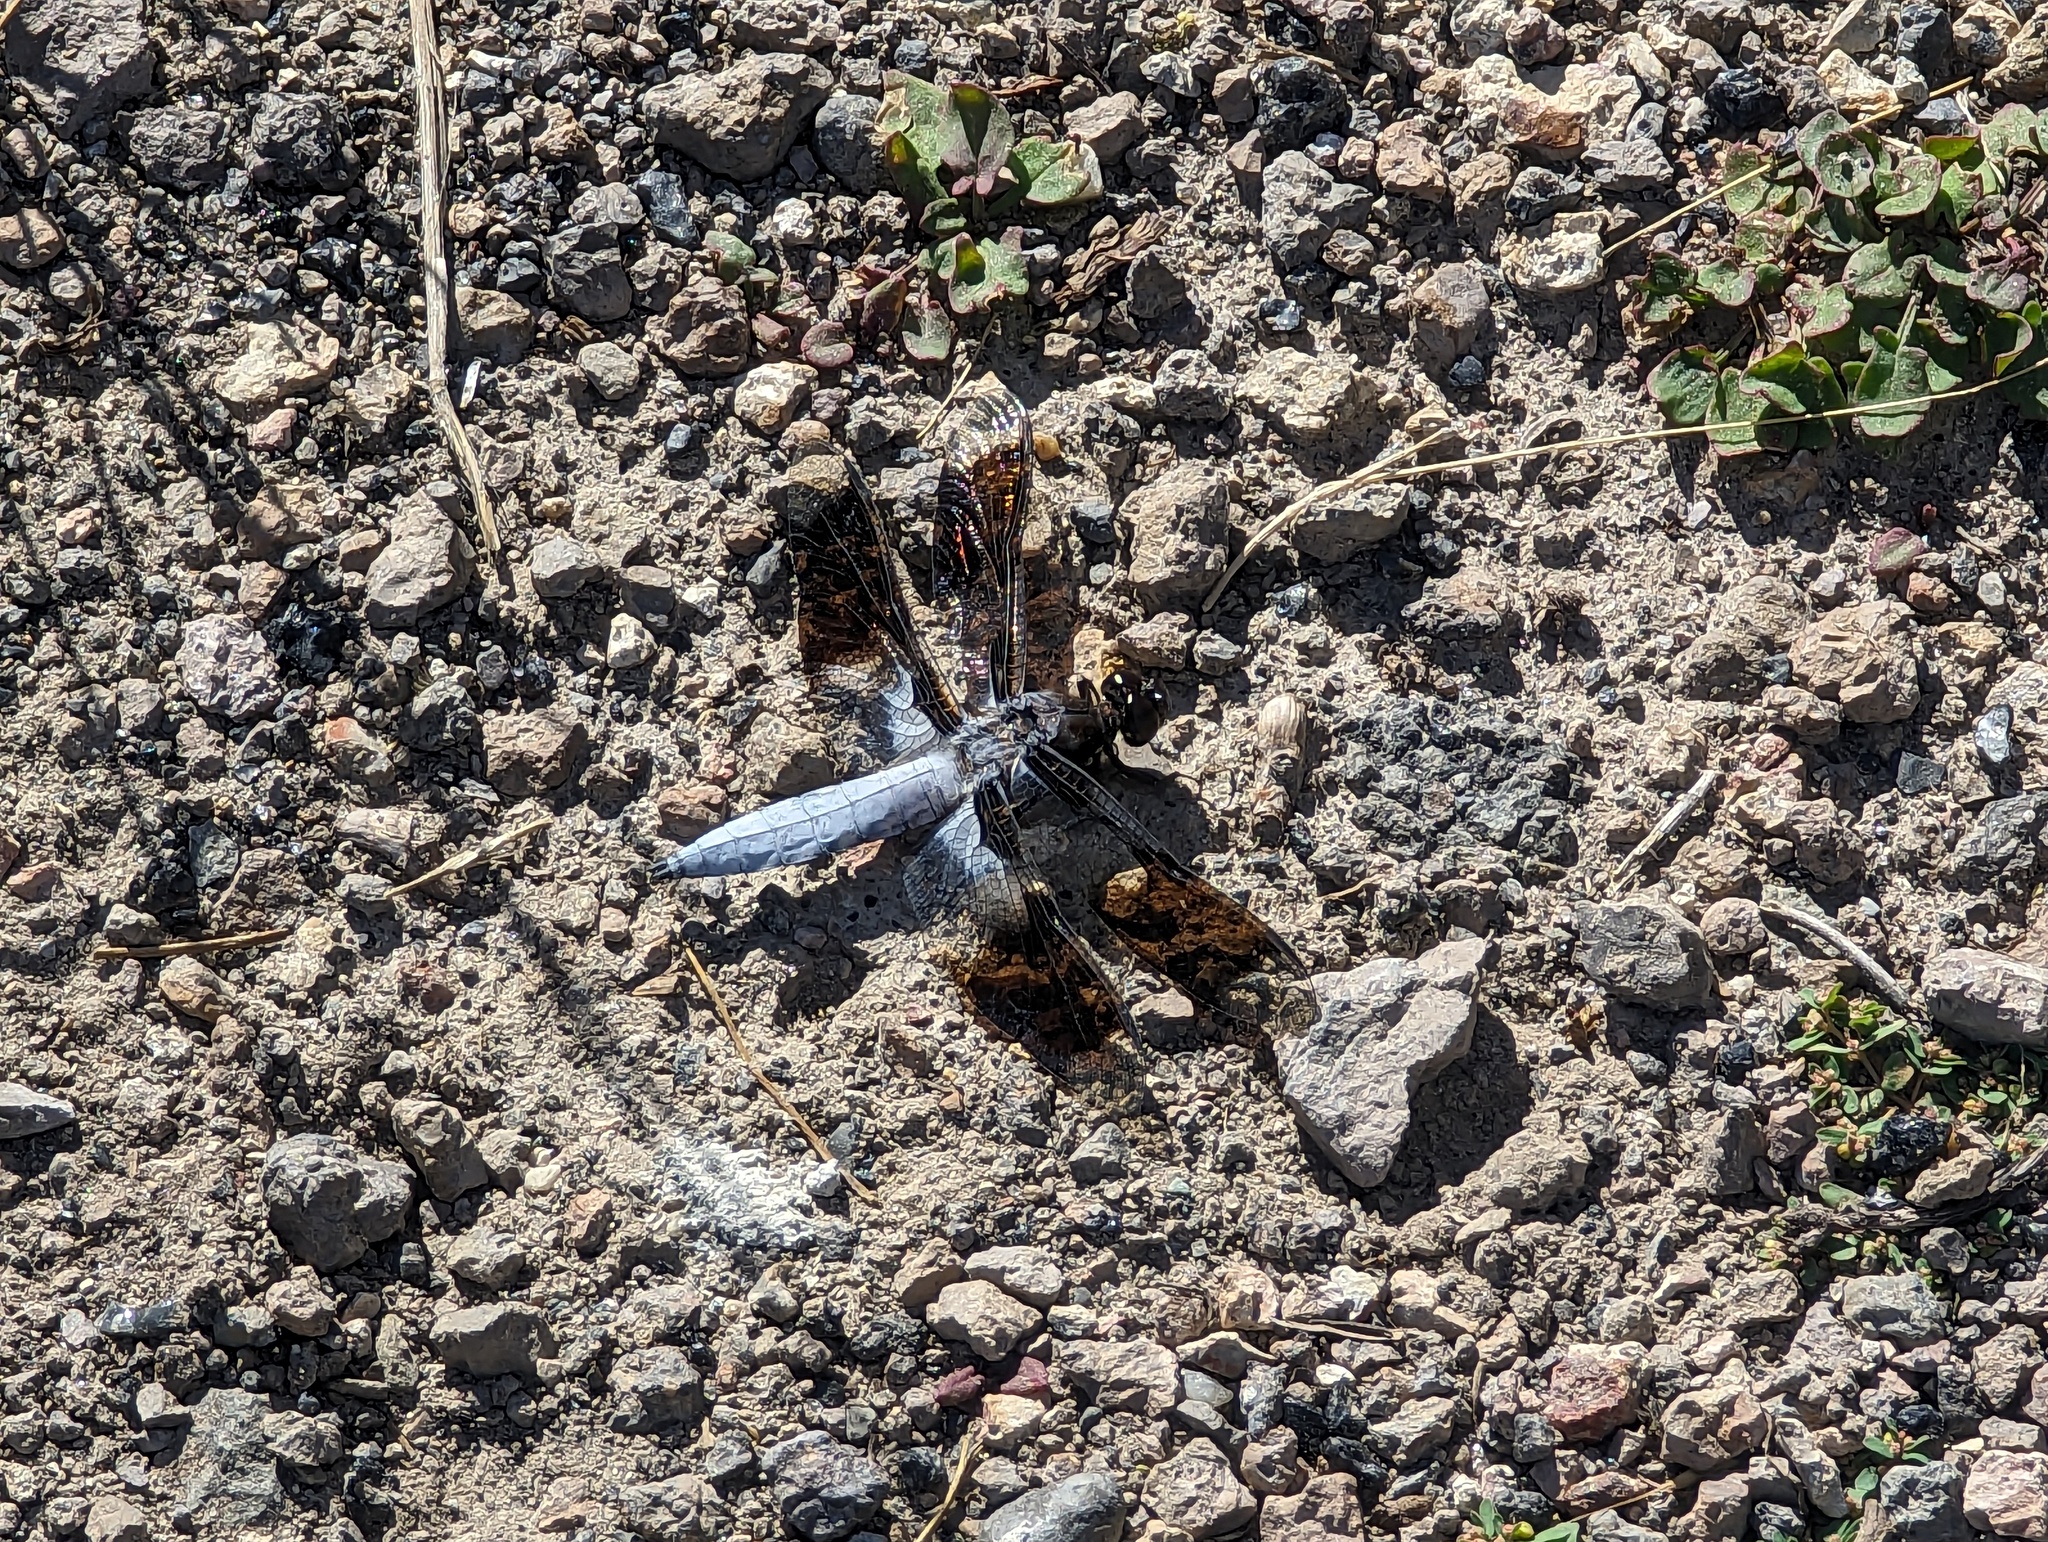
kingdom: Animalia
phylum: Arthropoda
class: Insecta
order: Odonata
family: Libellulidae
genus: Plathemis
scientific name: Plathemis lydia
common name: Common whitetail
